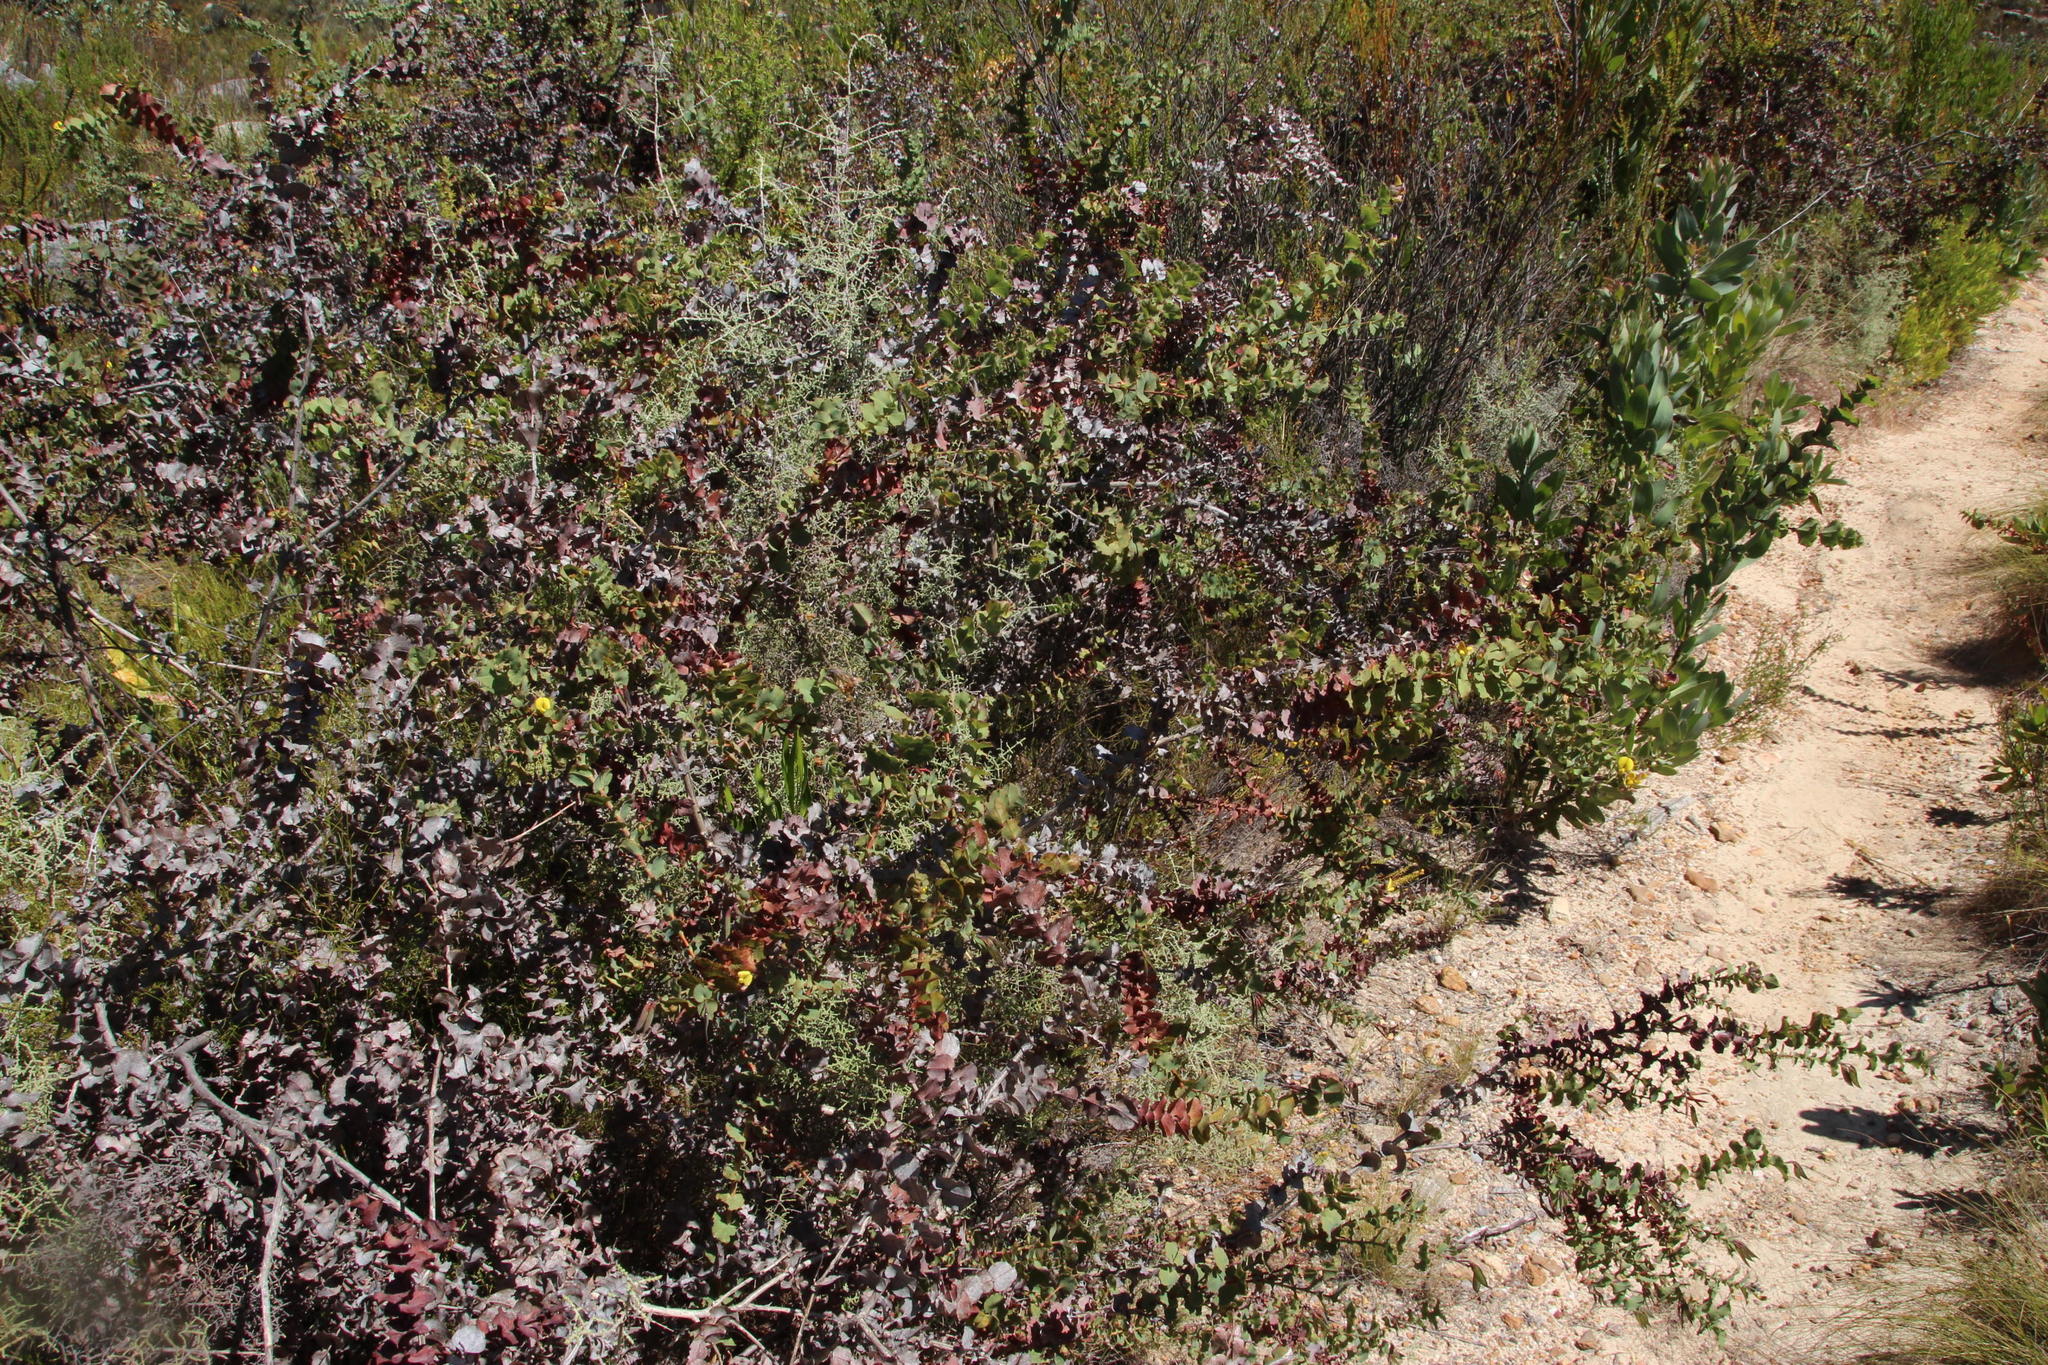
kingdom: Plantae
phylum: Tracheophyta
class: Magnoliopsida
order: Fabales
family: Fabaceae
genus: Aspalathus
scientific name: Aspalathus perfoliata
